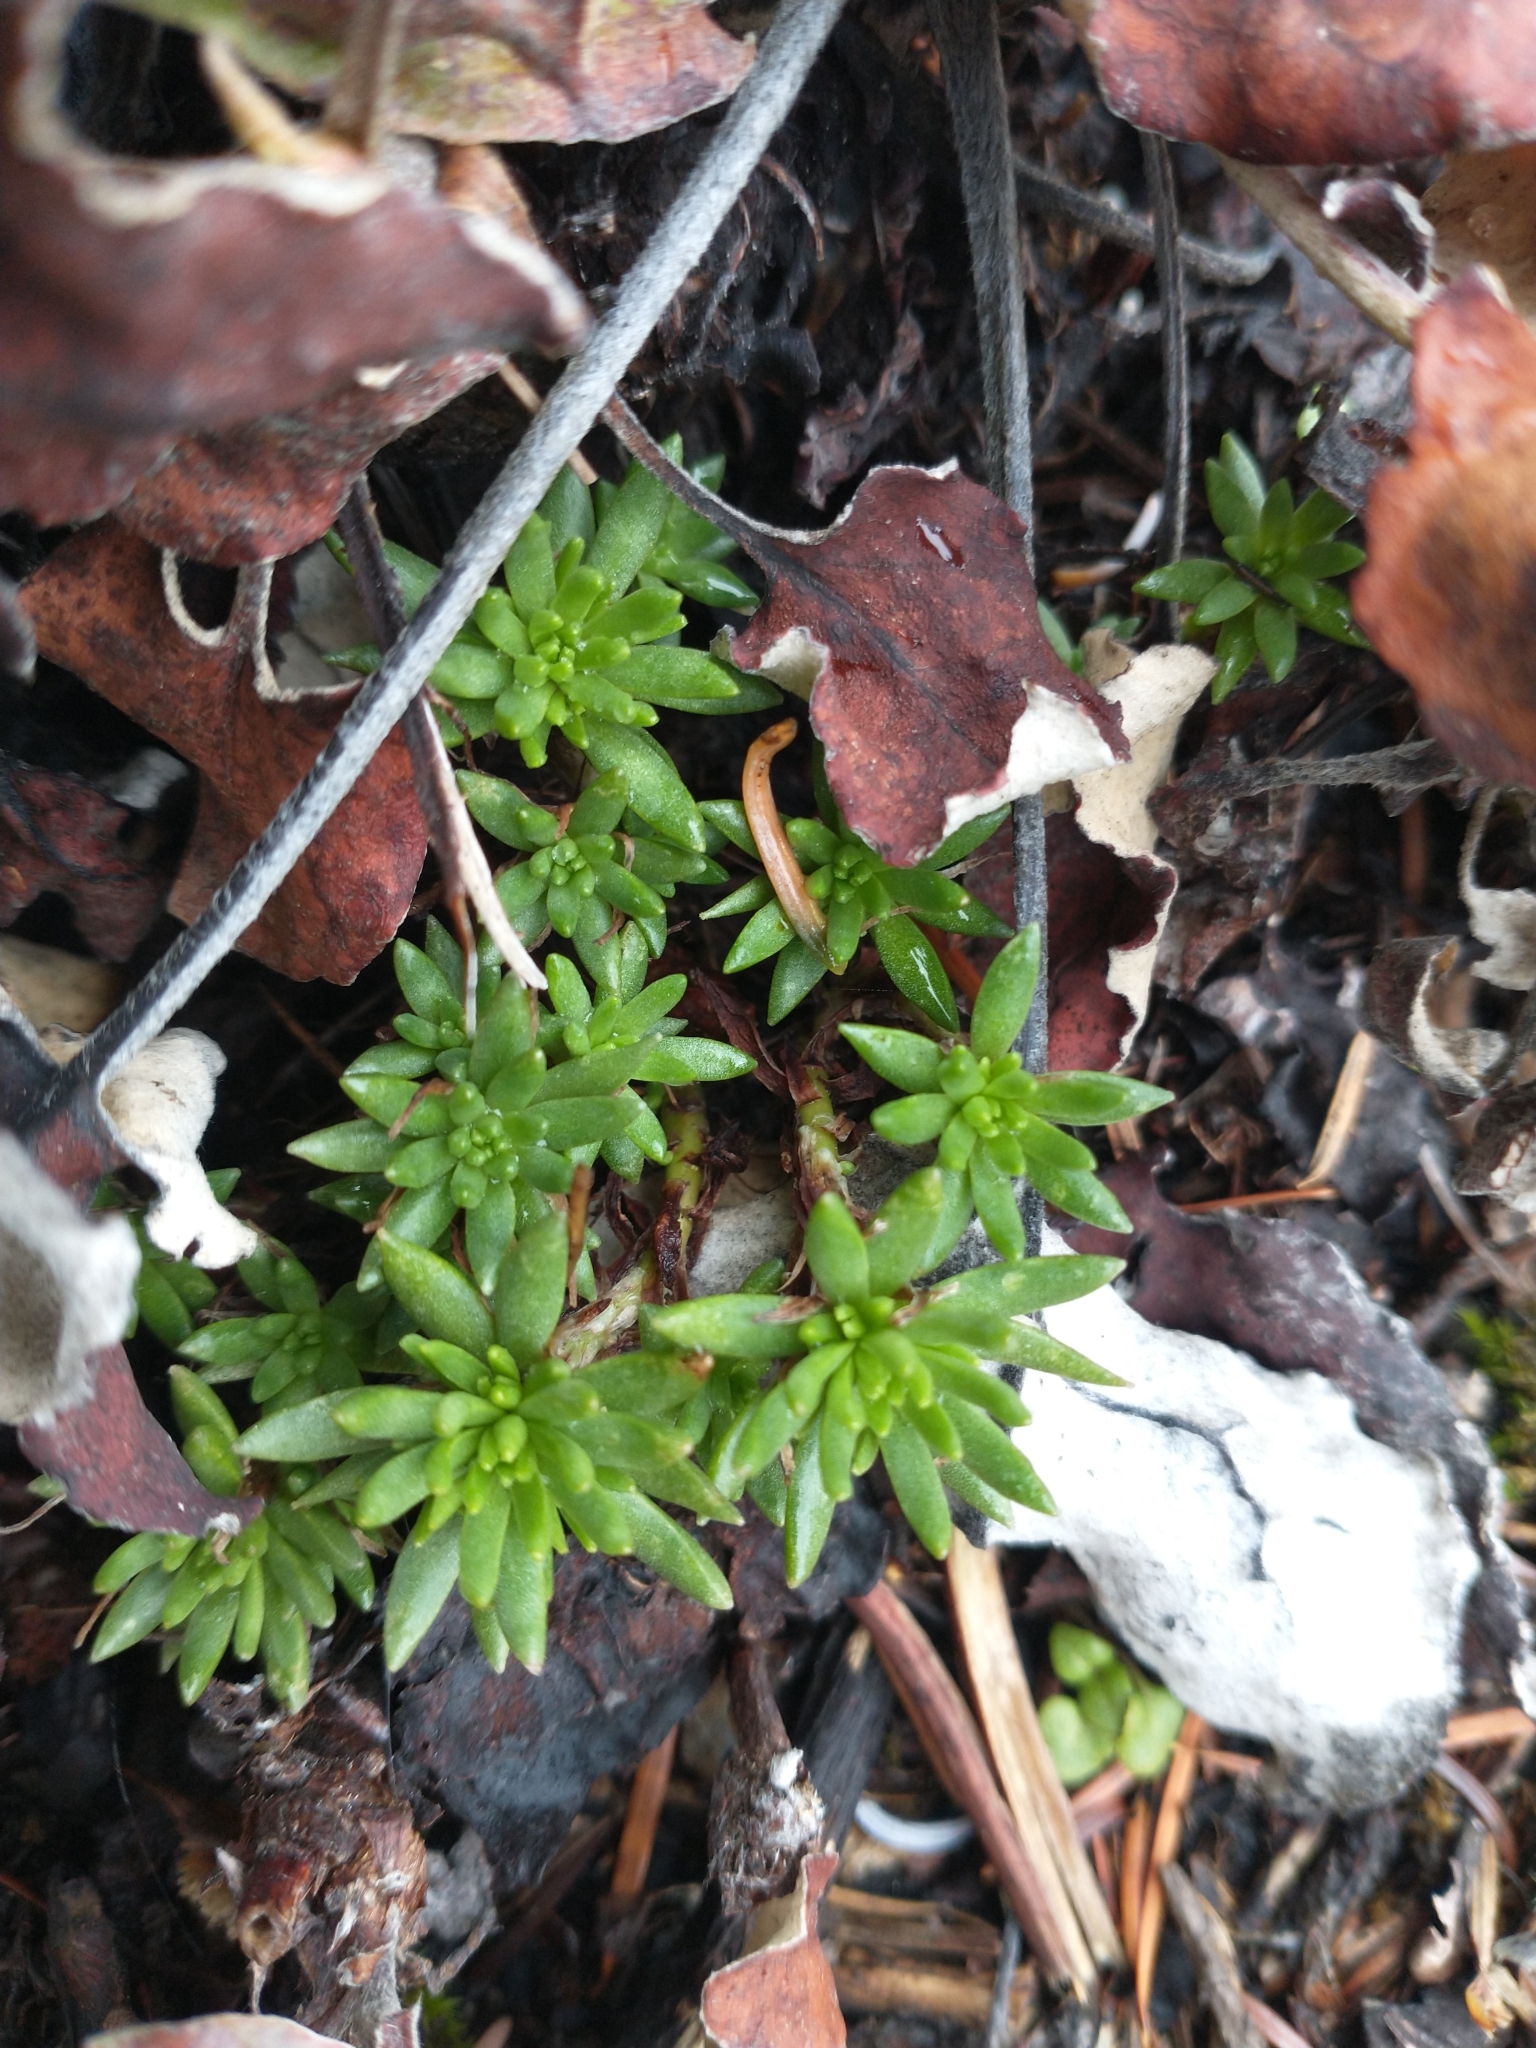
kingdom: Plantae
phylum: Tracheophyta
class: Magnoliopsida
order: Saxifragales
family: Crassulaceae
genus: Sedum
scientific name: Sedum stenopetalum
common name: Narrow-petaled stonecrop
